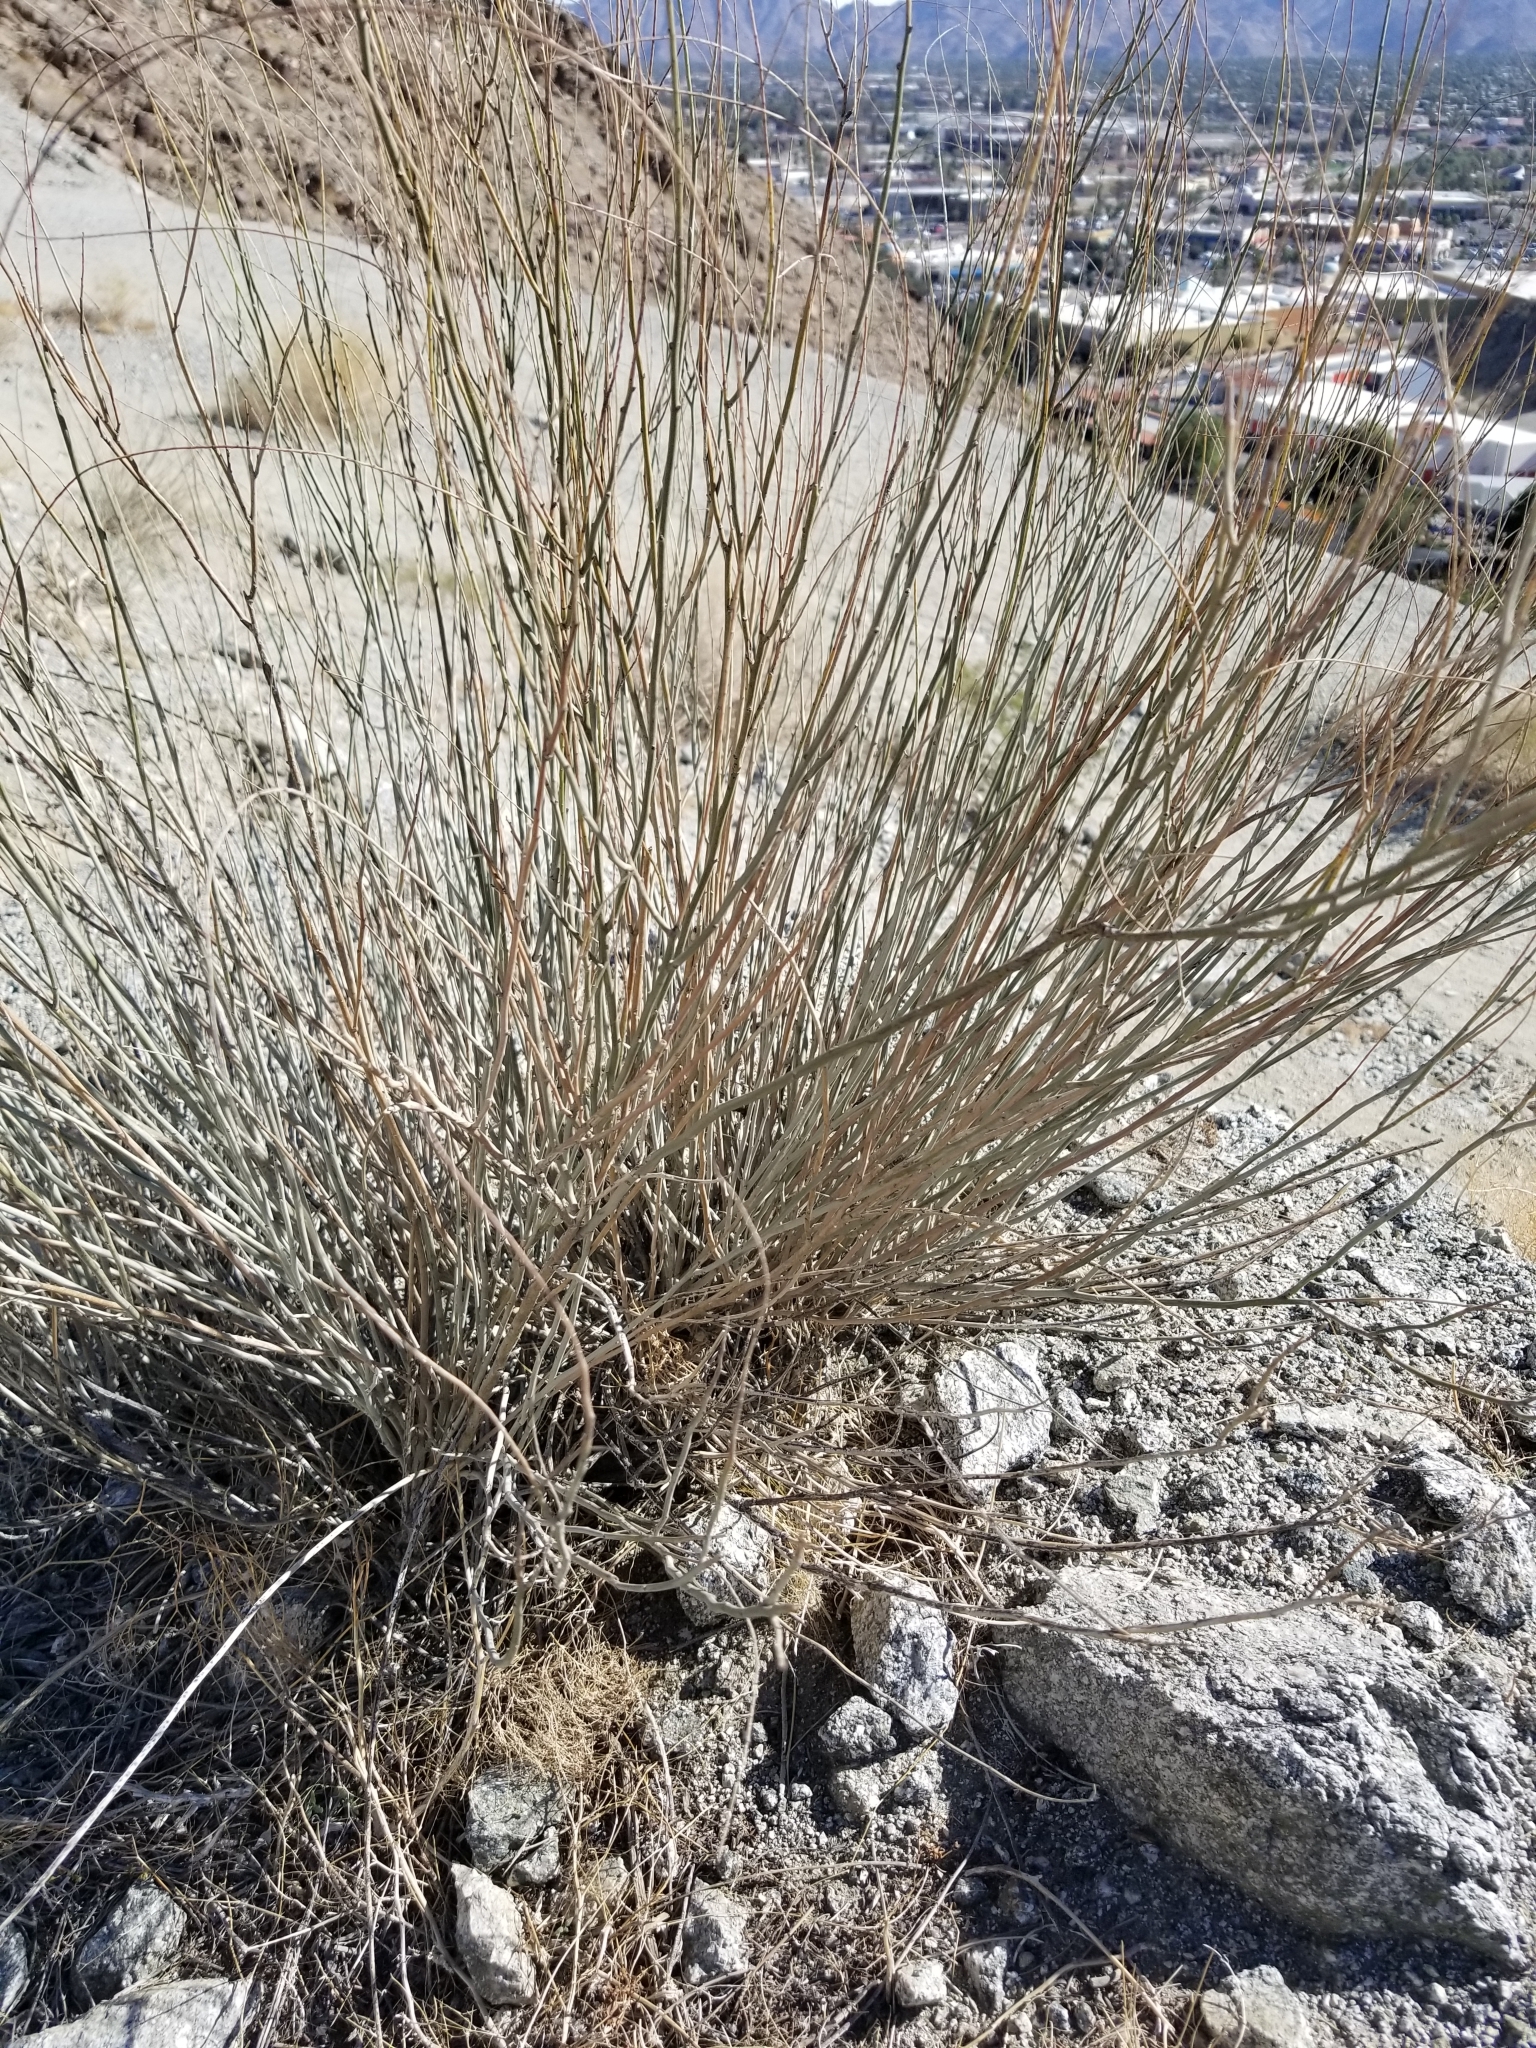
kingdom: Plantae
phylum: Tracheophyta
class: Magnoliopsida
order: Fabales
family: Fabaceae
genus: Hoffmannseggia
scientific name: Hoffmannseggia microphylla
